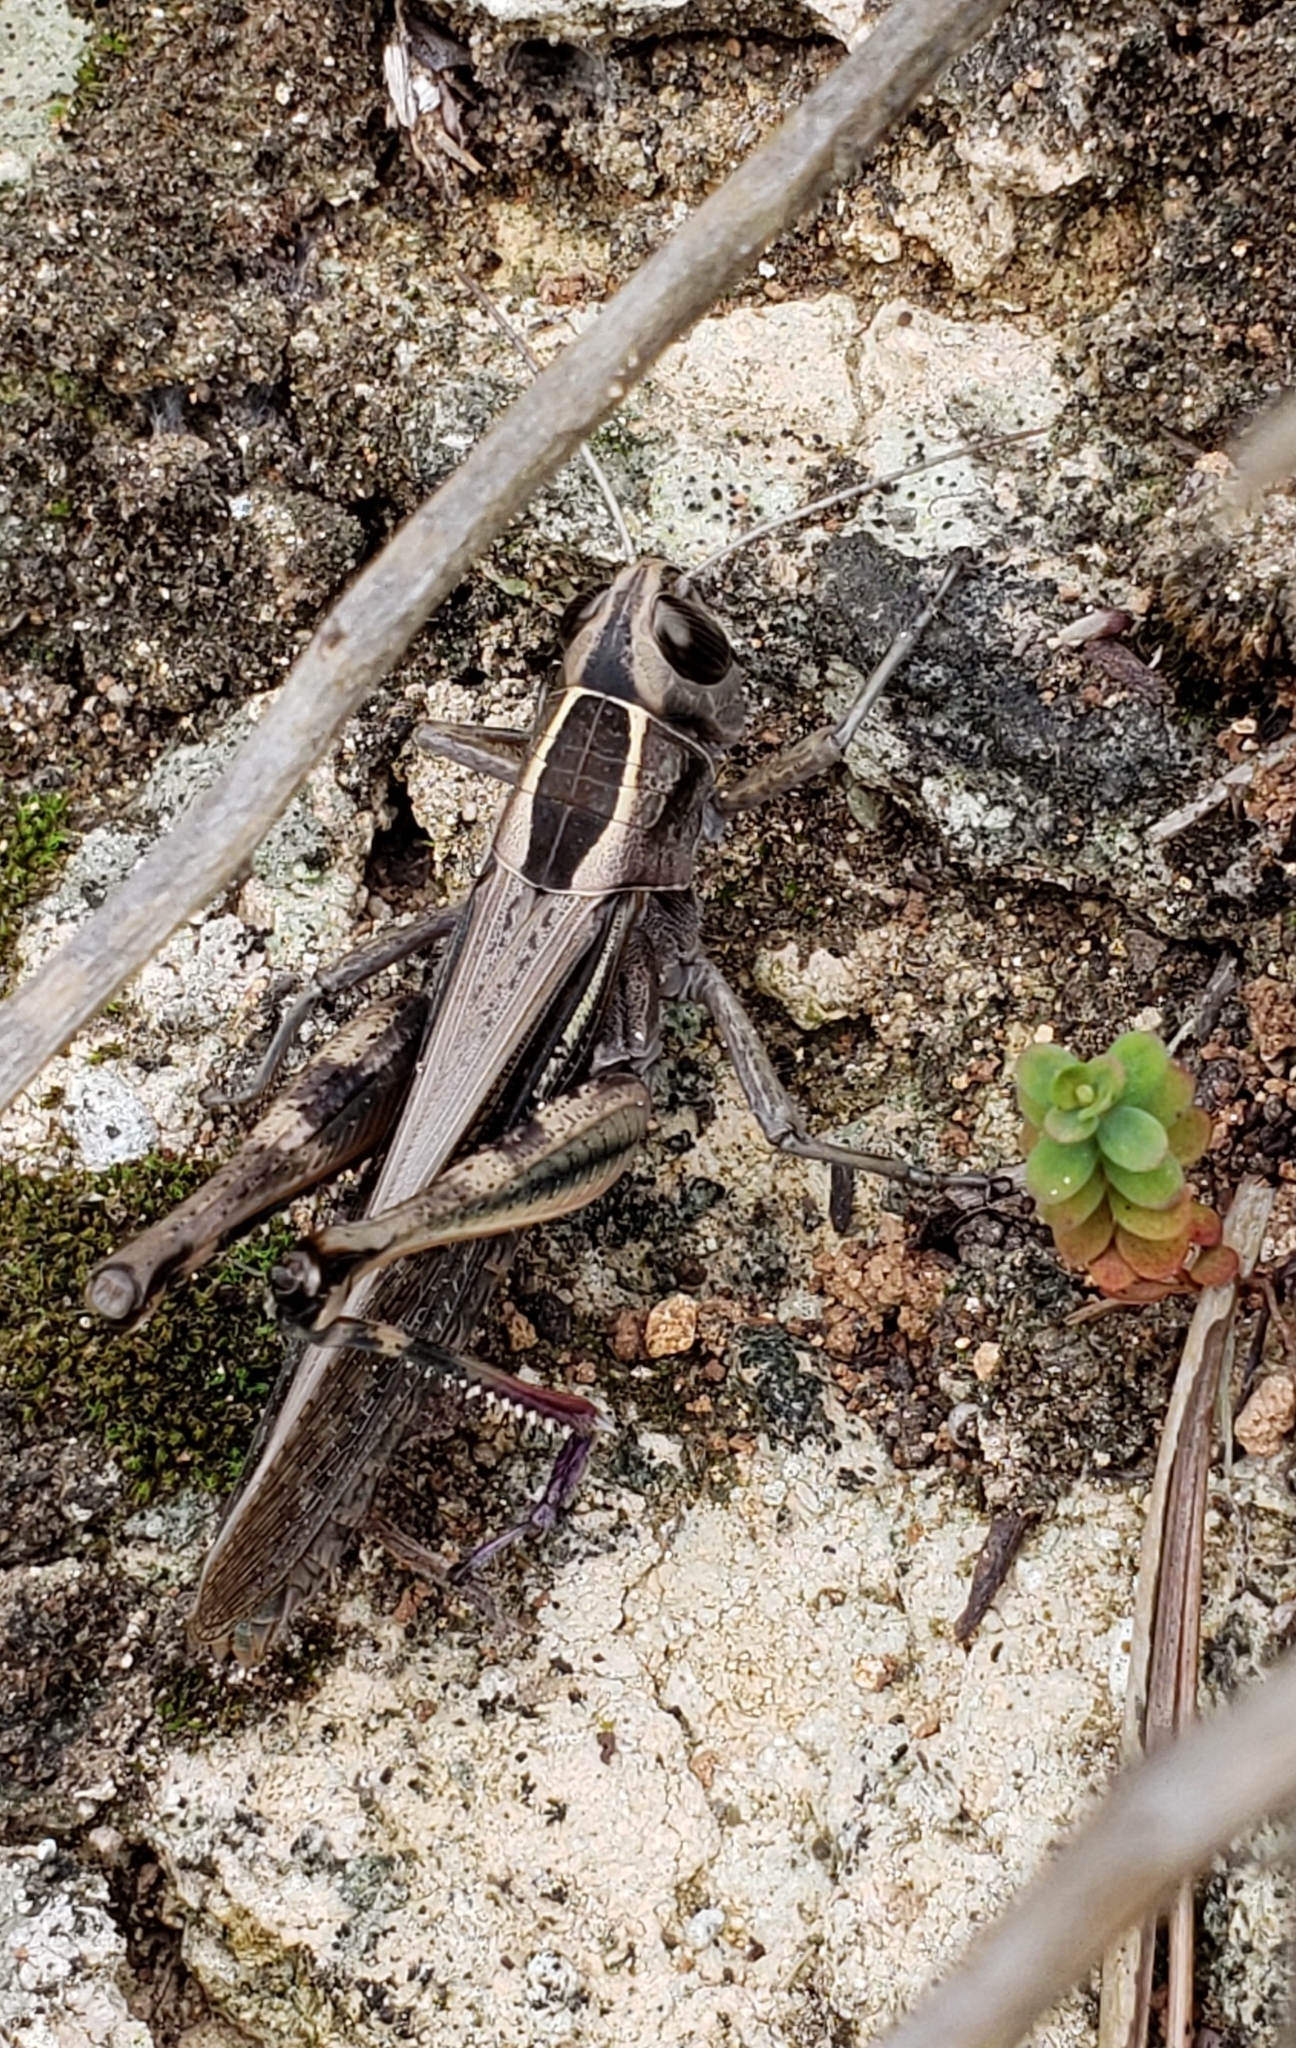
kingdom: Animalia
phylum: Arthropoda
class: Insecta
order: Orthoptera
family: Acrididae
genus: Eyprepocnemis
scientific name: Eyprepocnemis plorans
